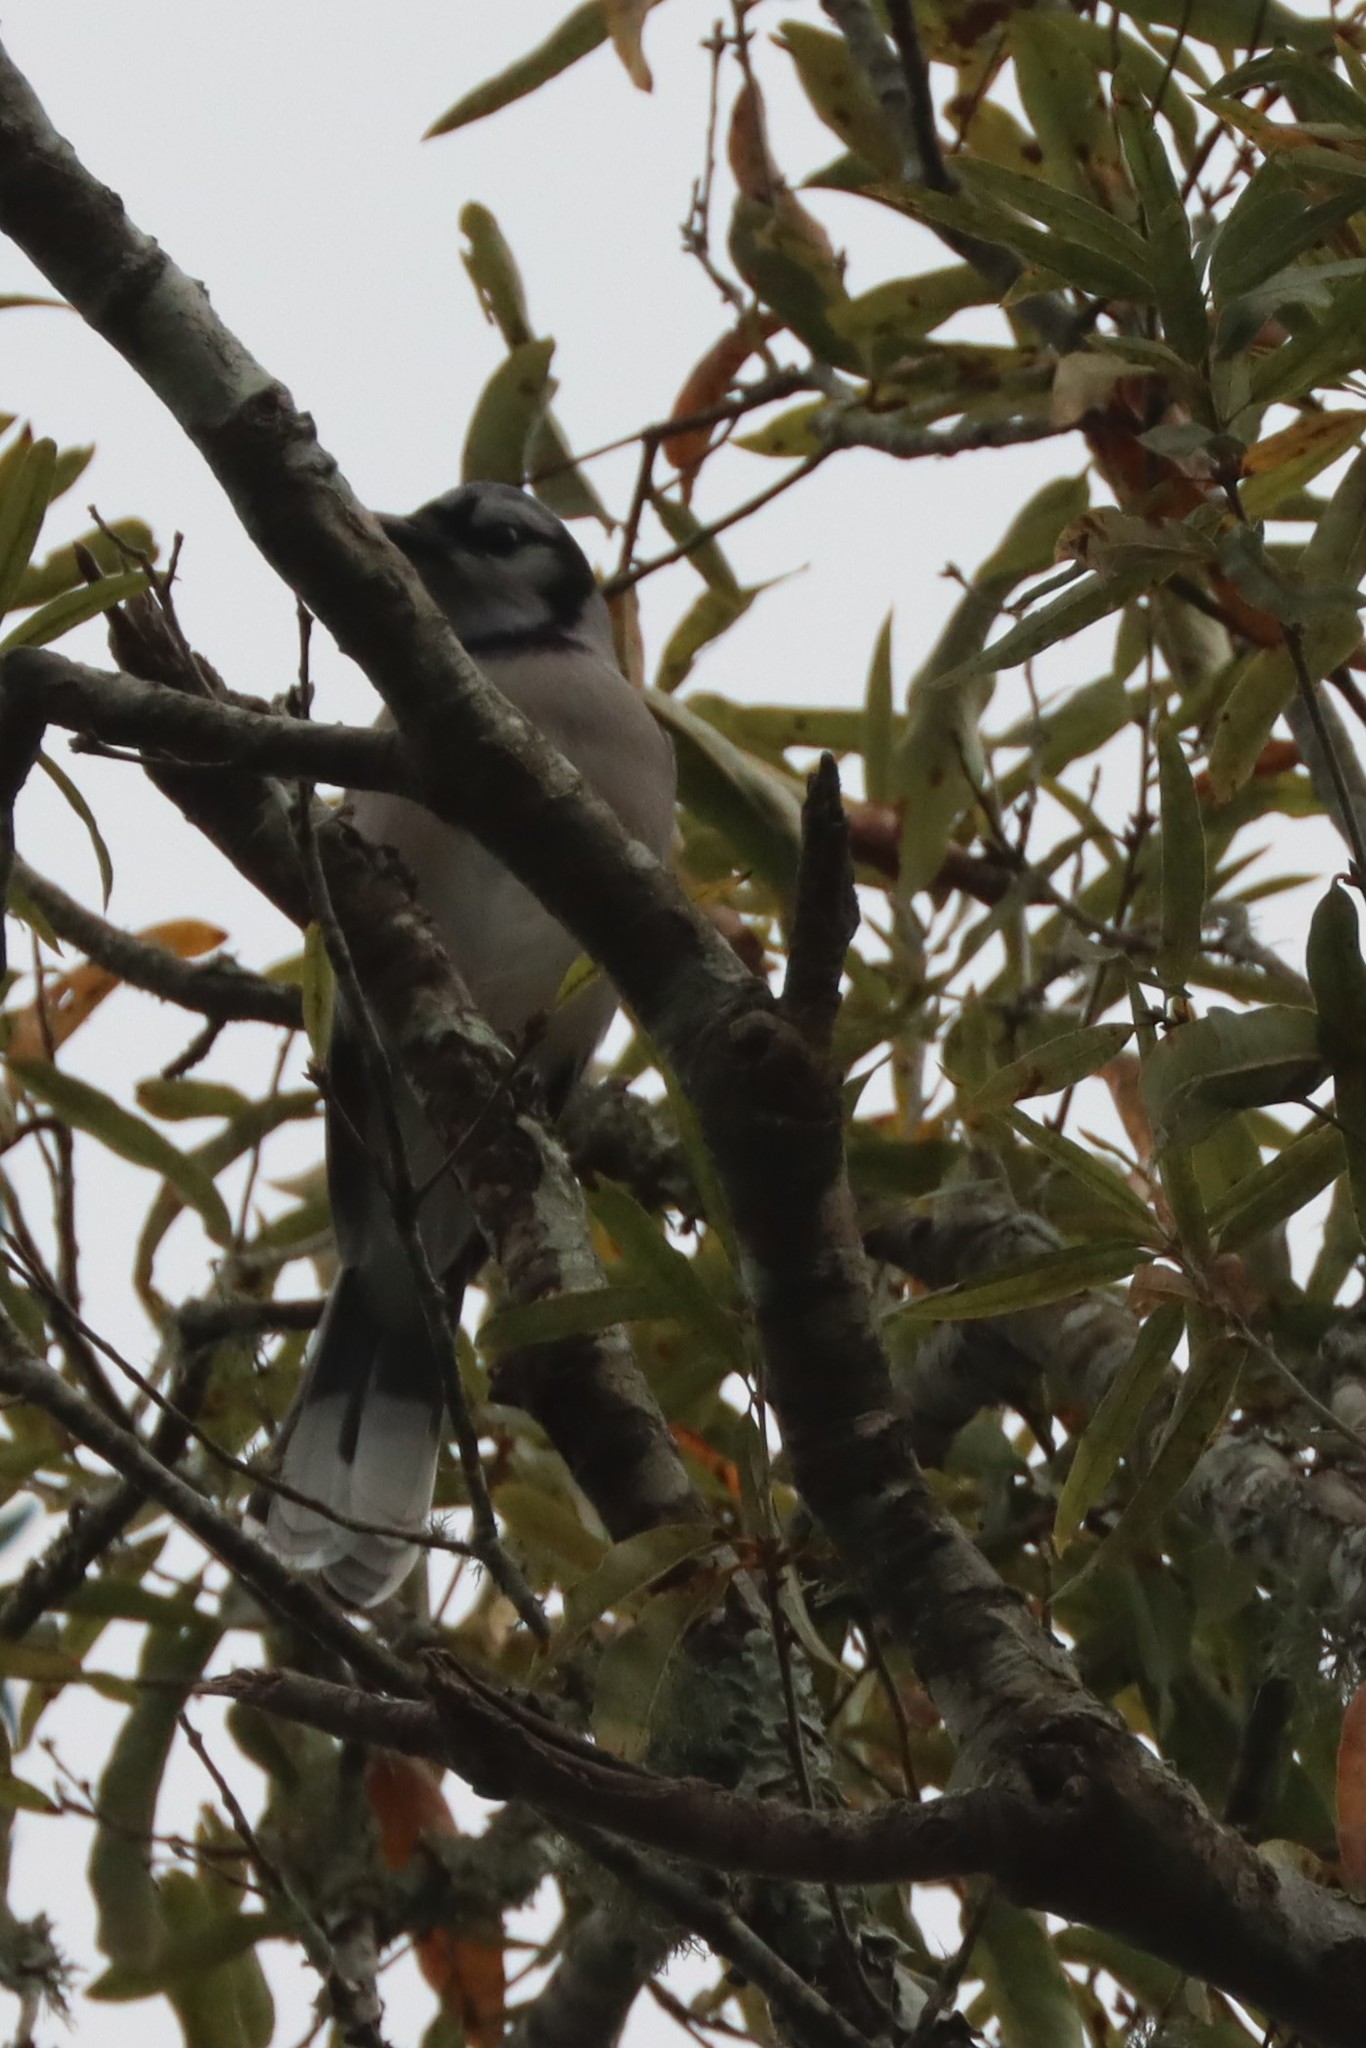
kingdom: Animalia
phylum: Chordata
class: Aves
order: Passeriformes
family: Corvidae
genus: Cyanocitta
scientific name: Cyanocitta cristata
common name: Blue jay
